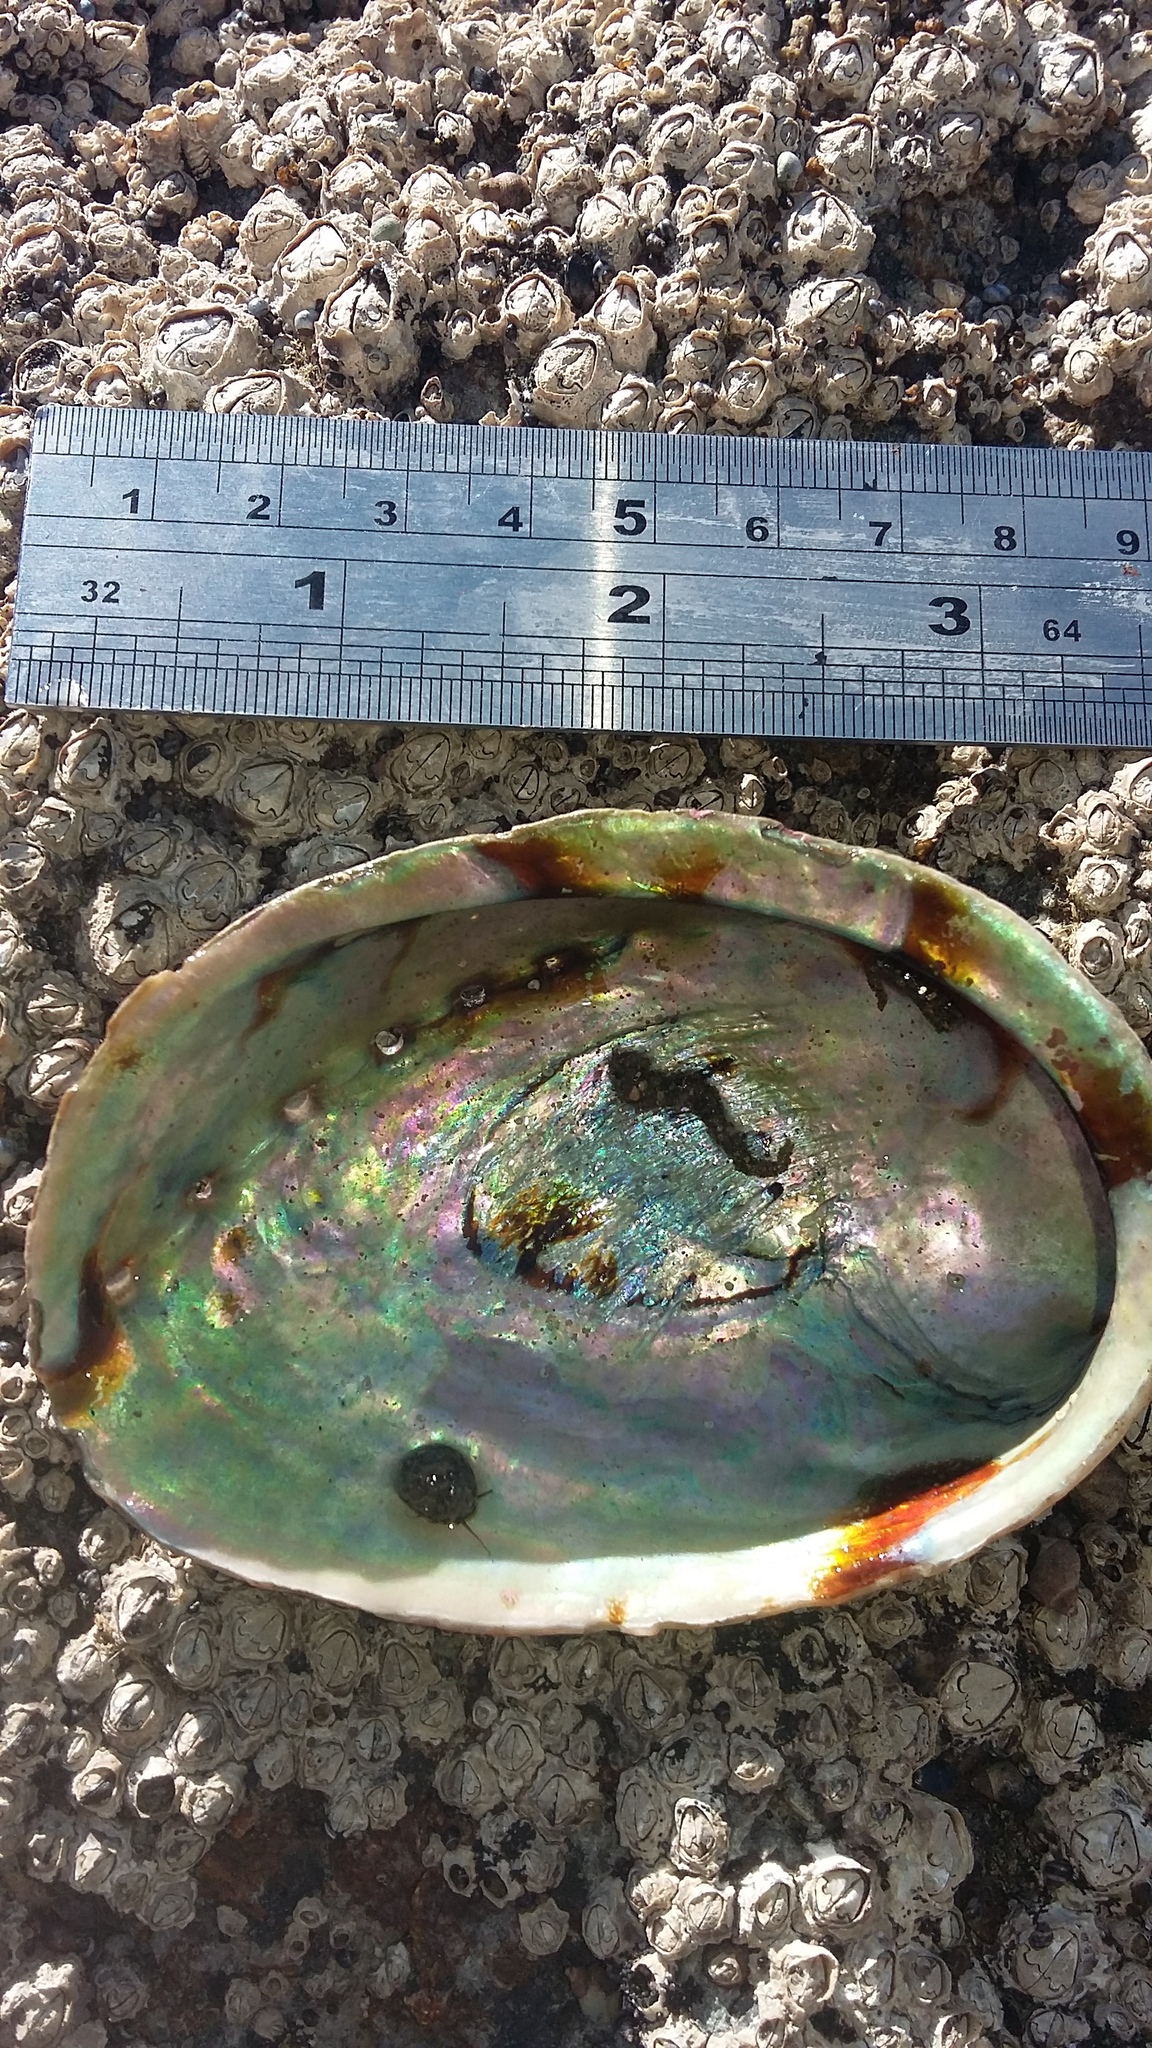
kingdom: Animalia
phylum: Mollusca
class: Gastropoda
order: Lepetellida
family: Haliotidae
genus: Haliotis
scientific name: Haliotis iris
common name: Abalone
